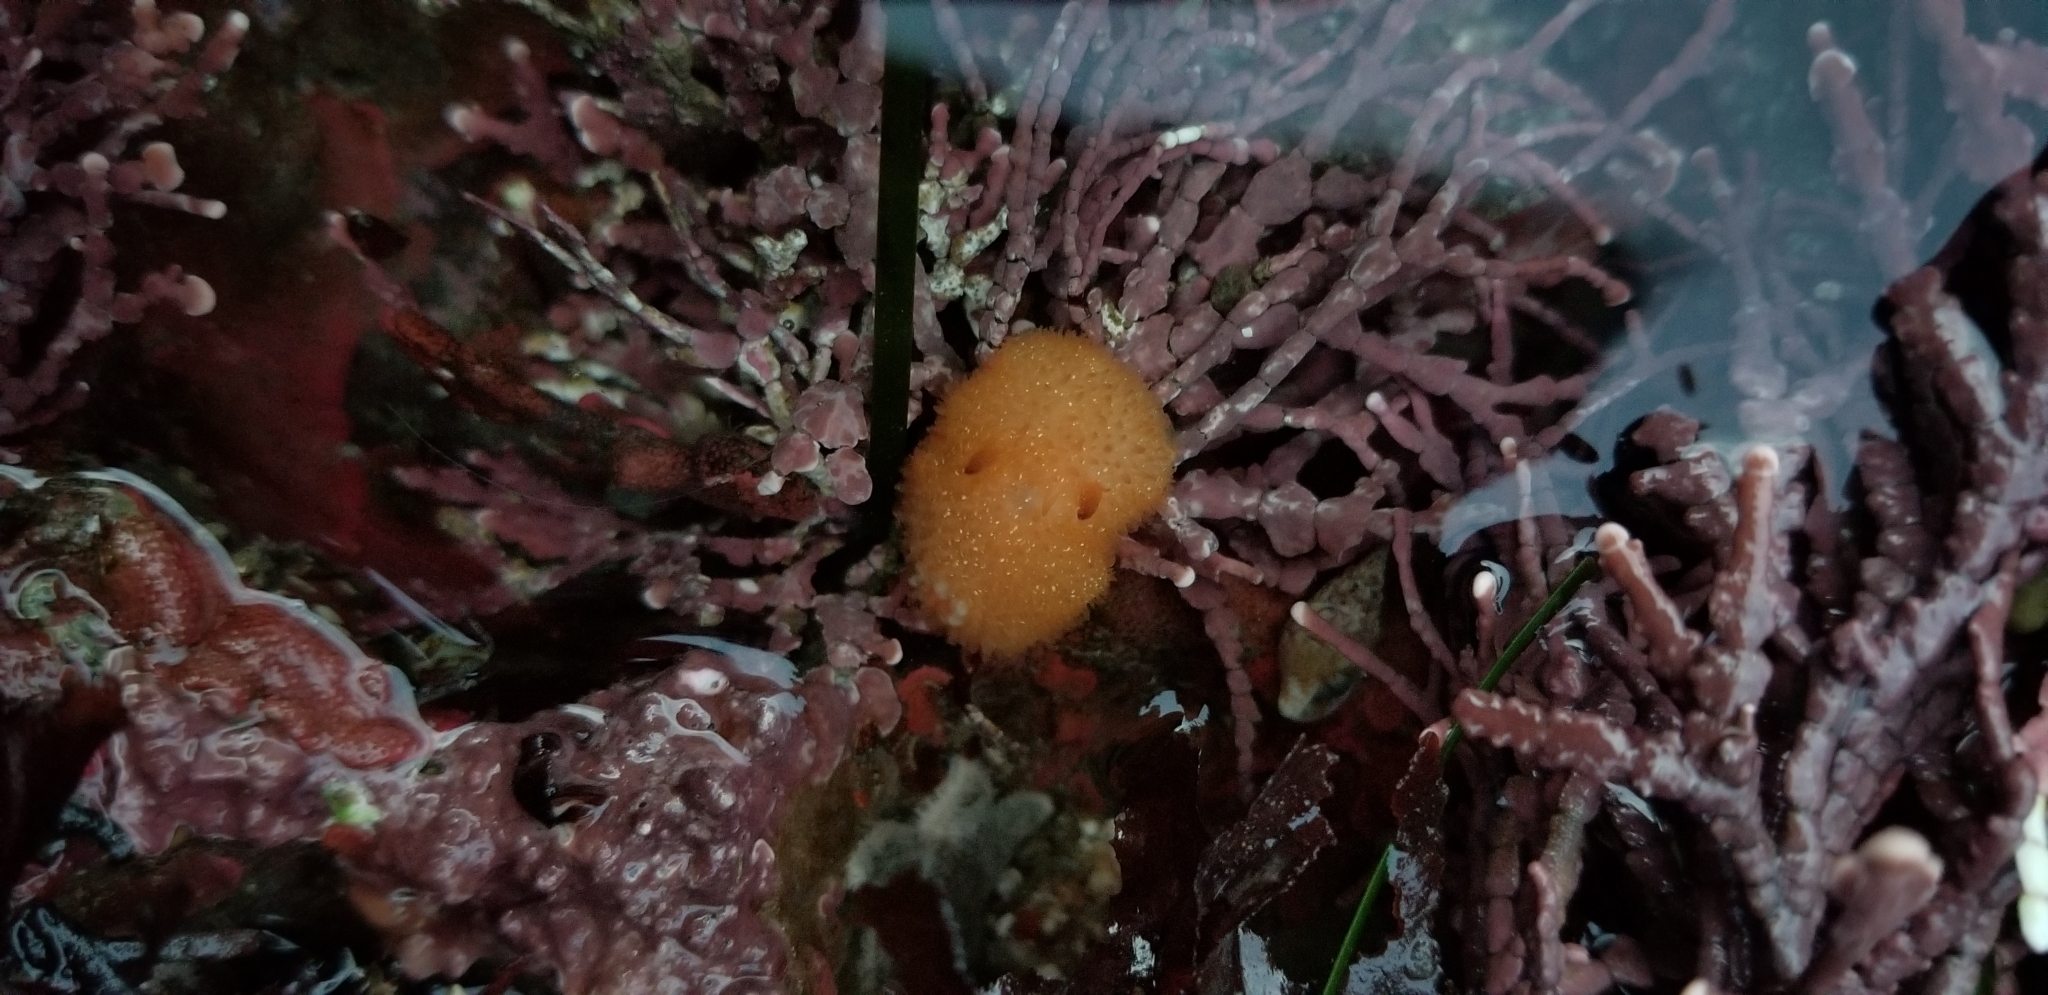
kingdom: Animalia
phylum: Mollusca
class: Gastropoda
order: Nudibranchia
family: Onchidorididae
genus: Acanthodoris
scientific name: Acanthodoris lutea
